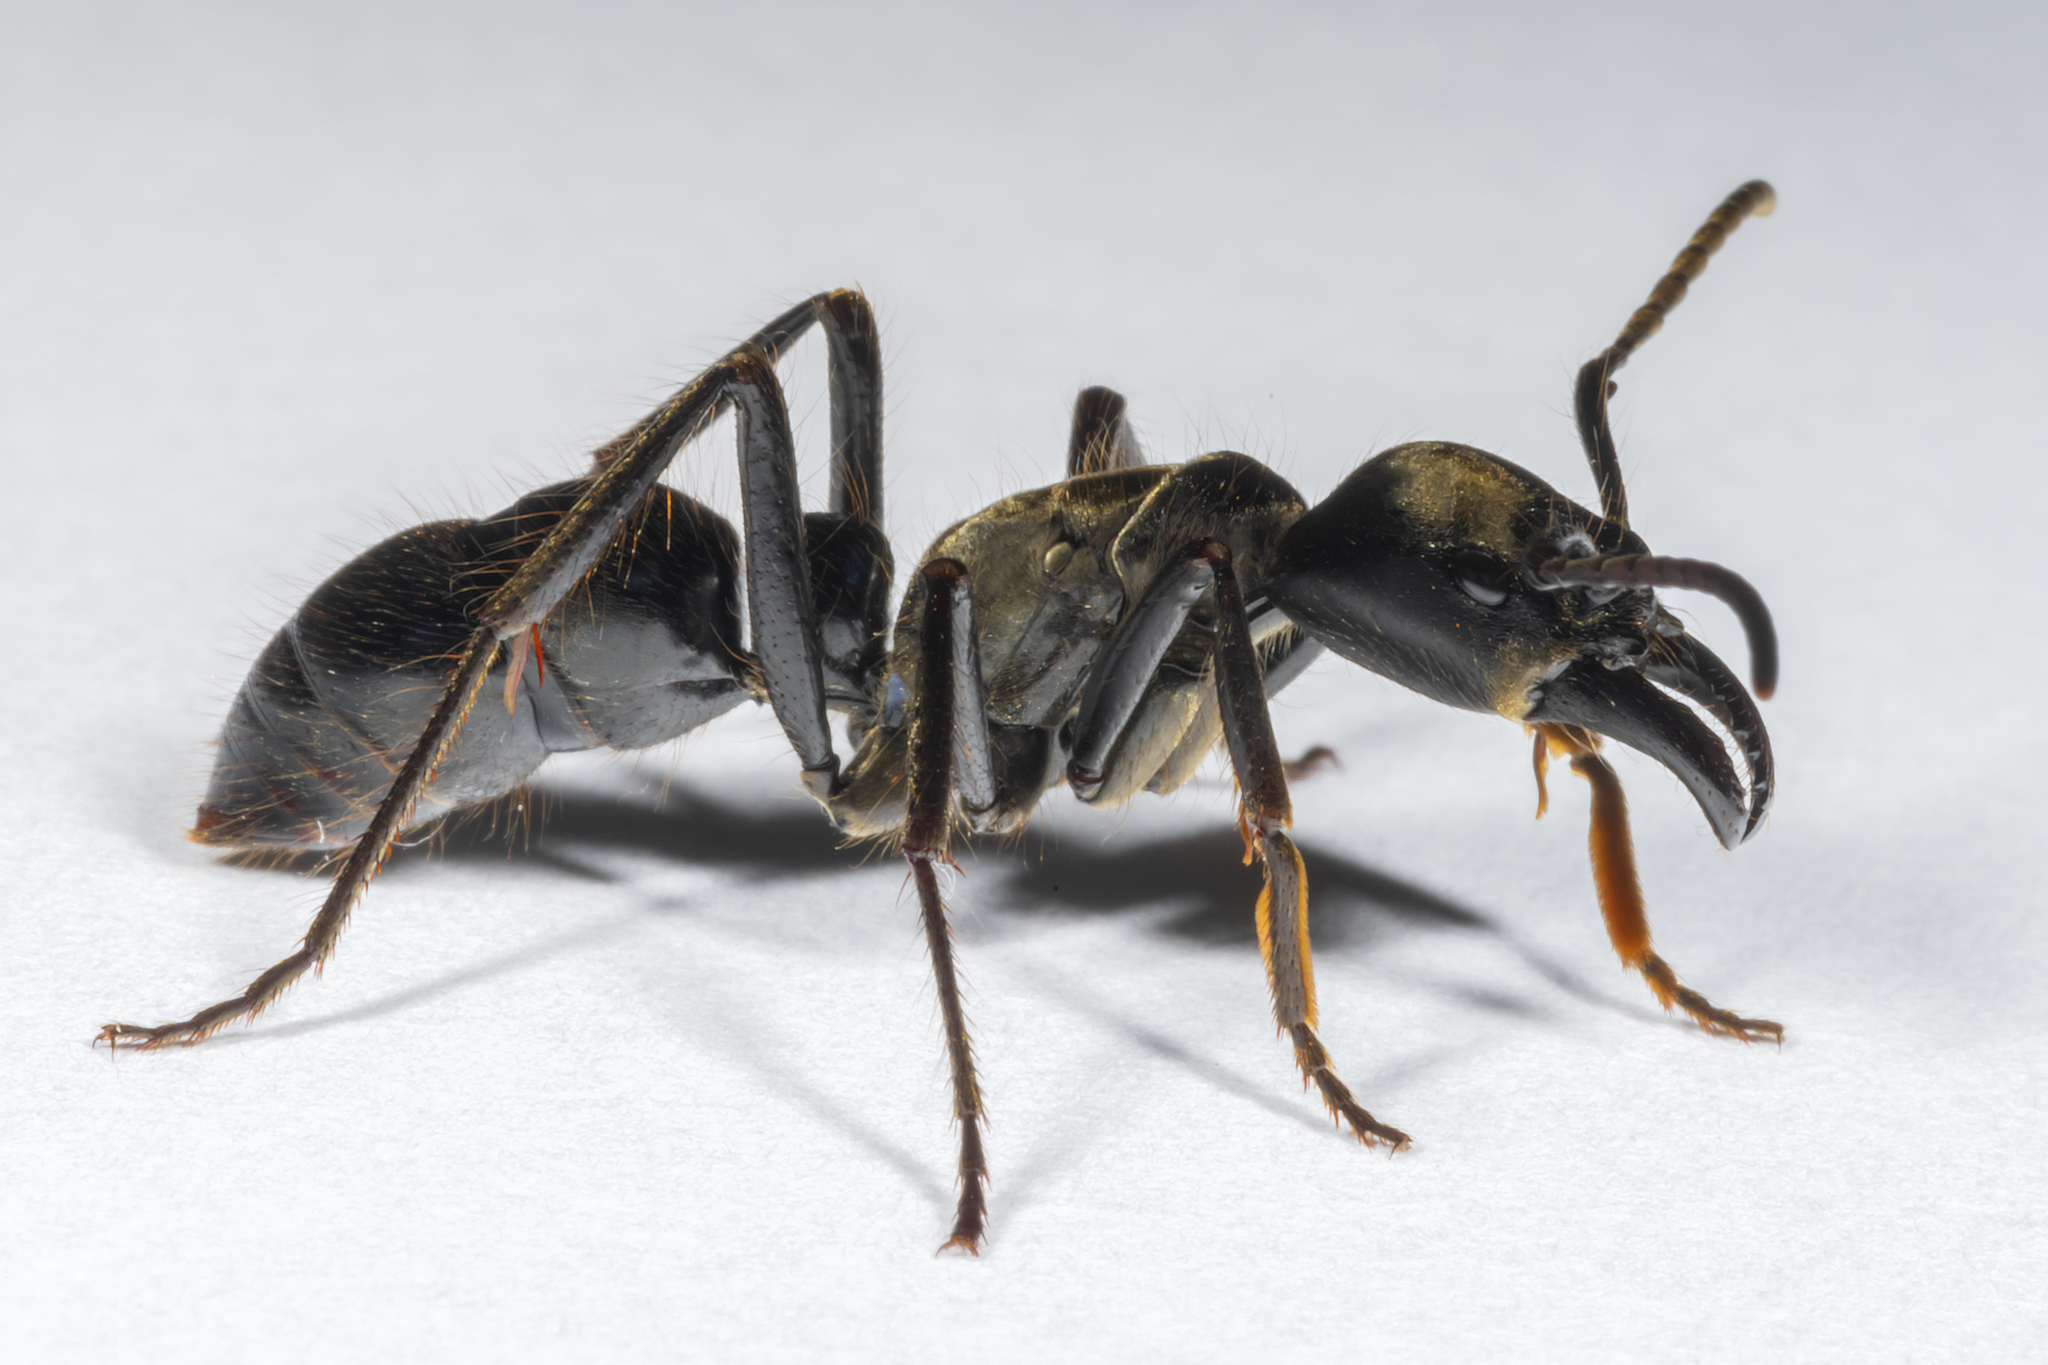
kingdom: Animalia
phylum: Arthropoda
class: Insecta
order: Hymenoptera
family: Formicidae
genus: Dinoponera
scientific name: Dinoponera grandis
